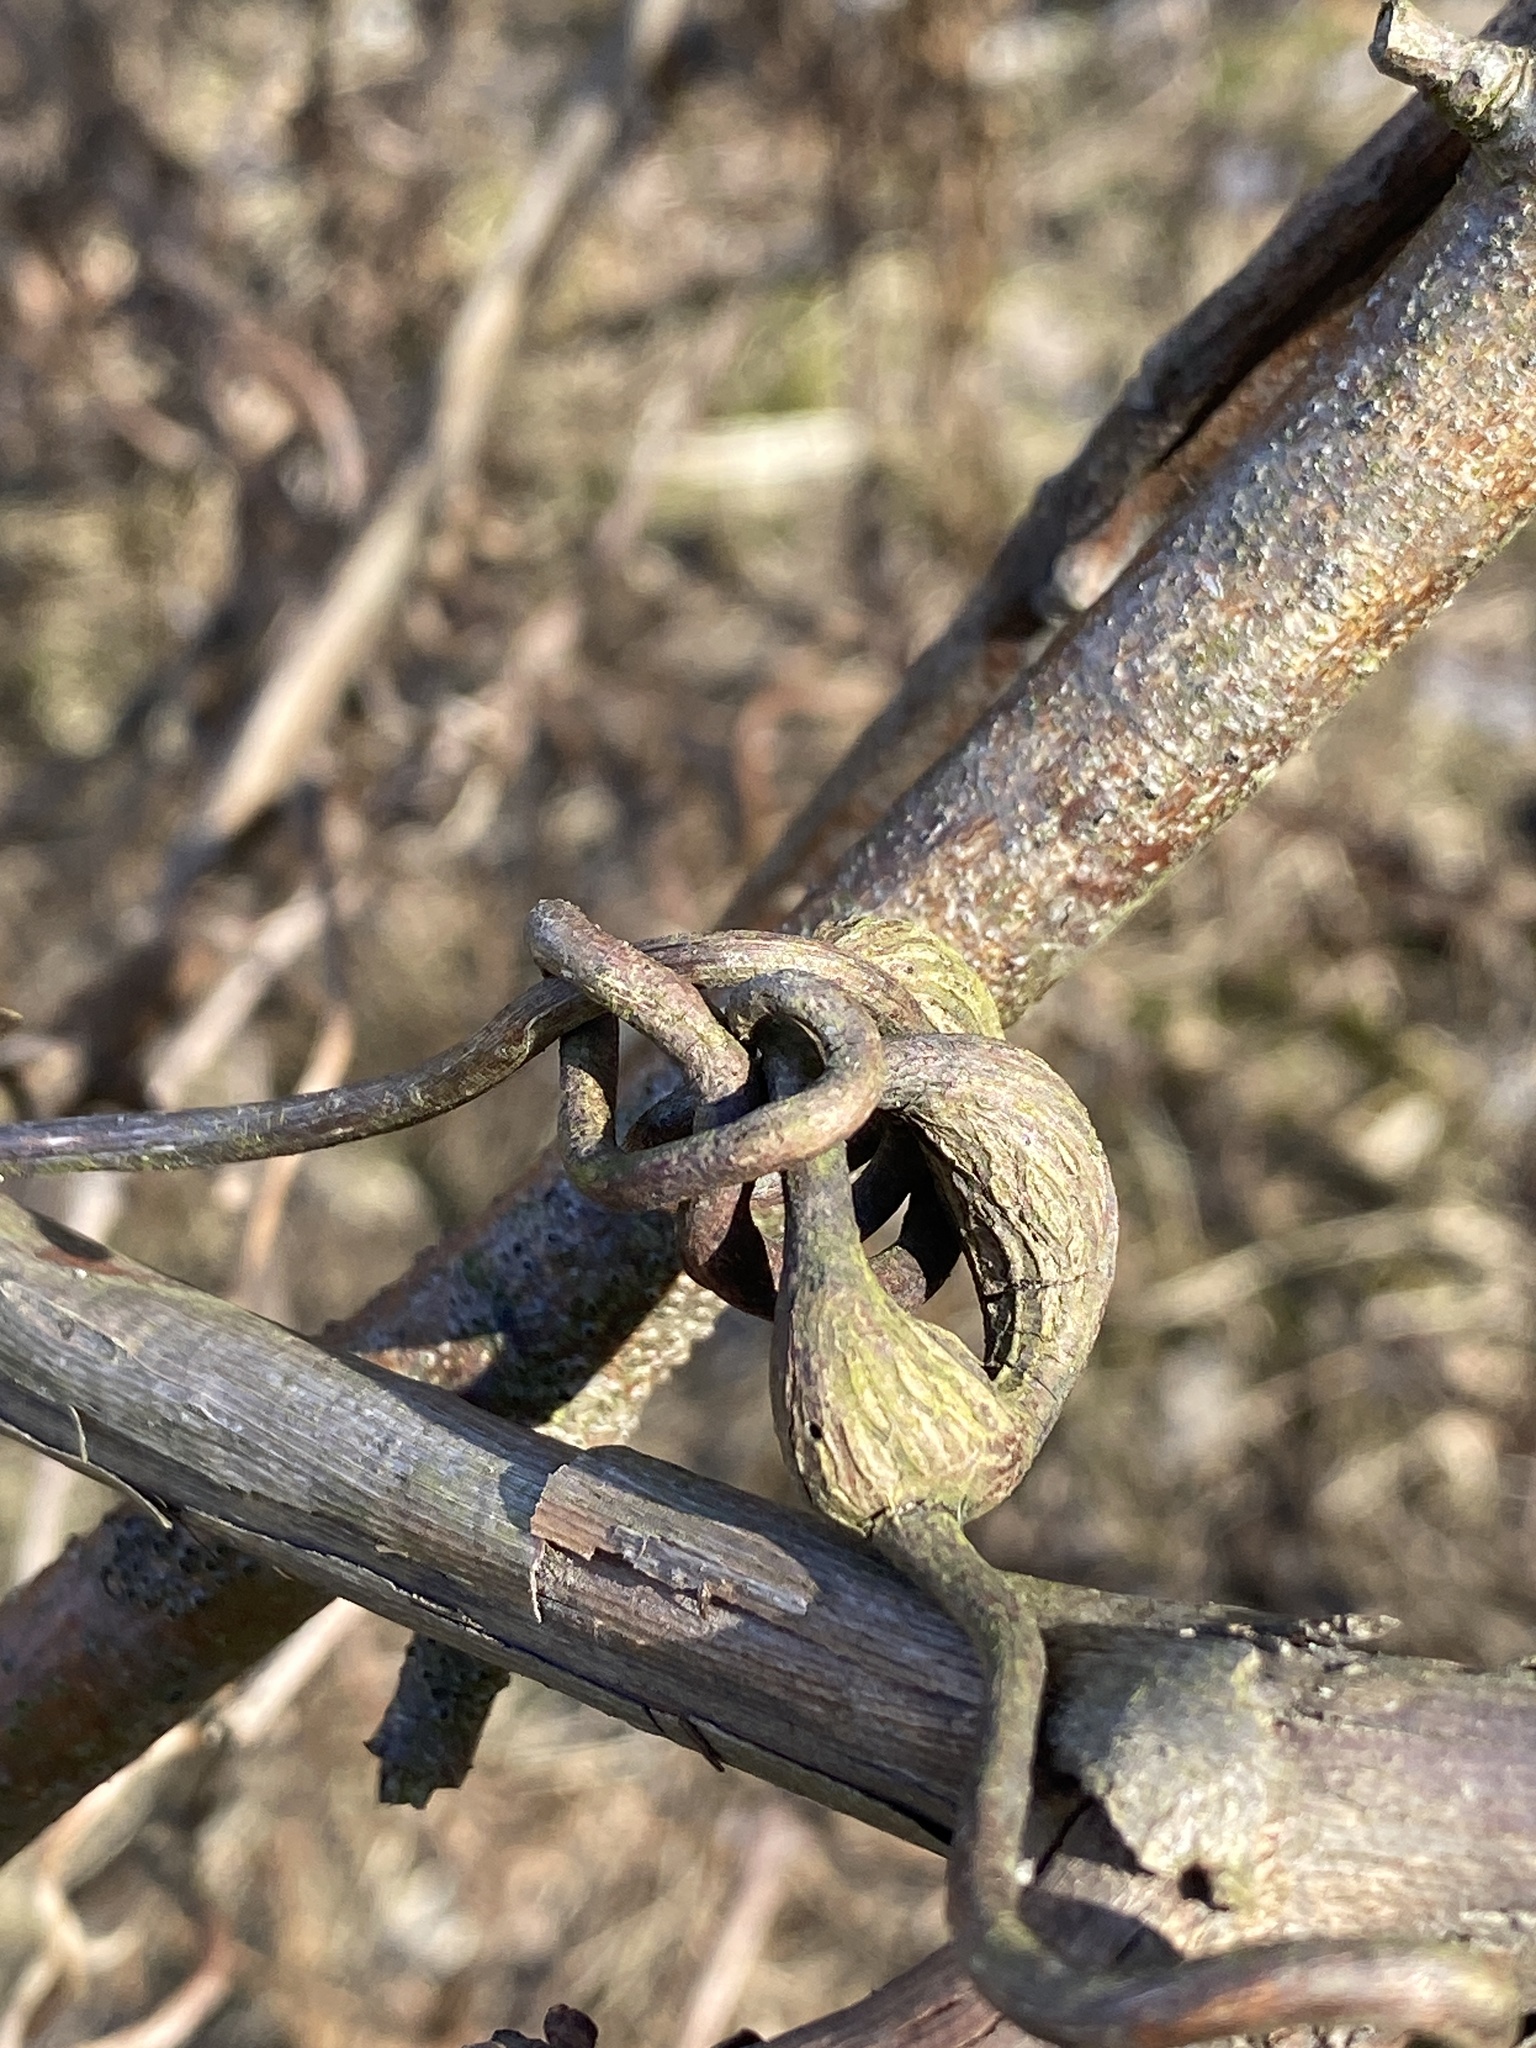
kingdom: Animalia
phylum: Arthropoda
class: Insecta
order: Diptera
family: Cecidomyiidae
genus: Neolasioptera
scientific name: Neolasioptera vitinea
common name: Grape leaf petiole gall
